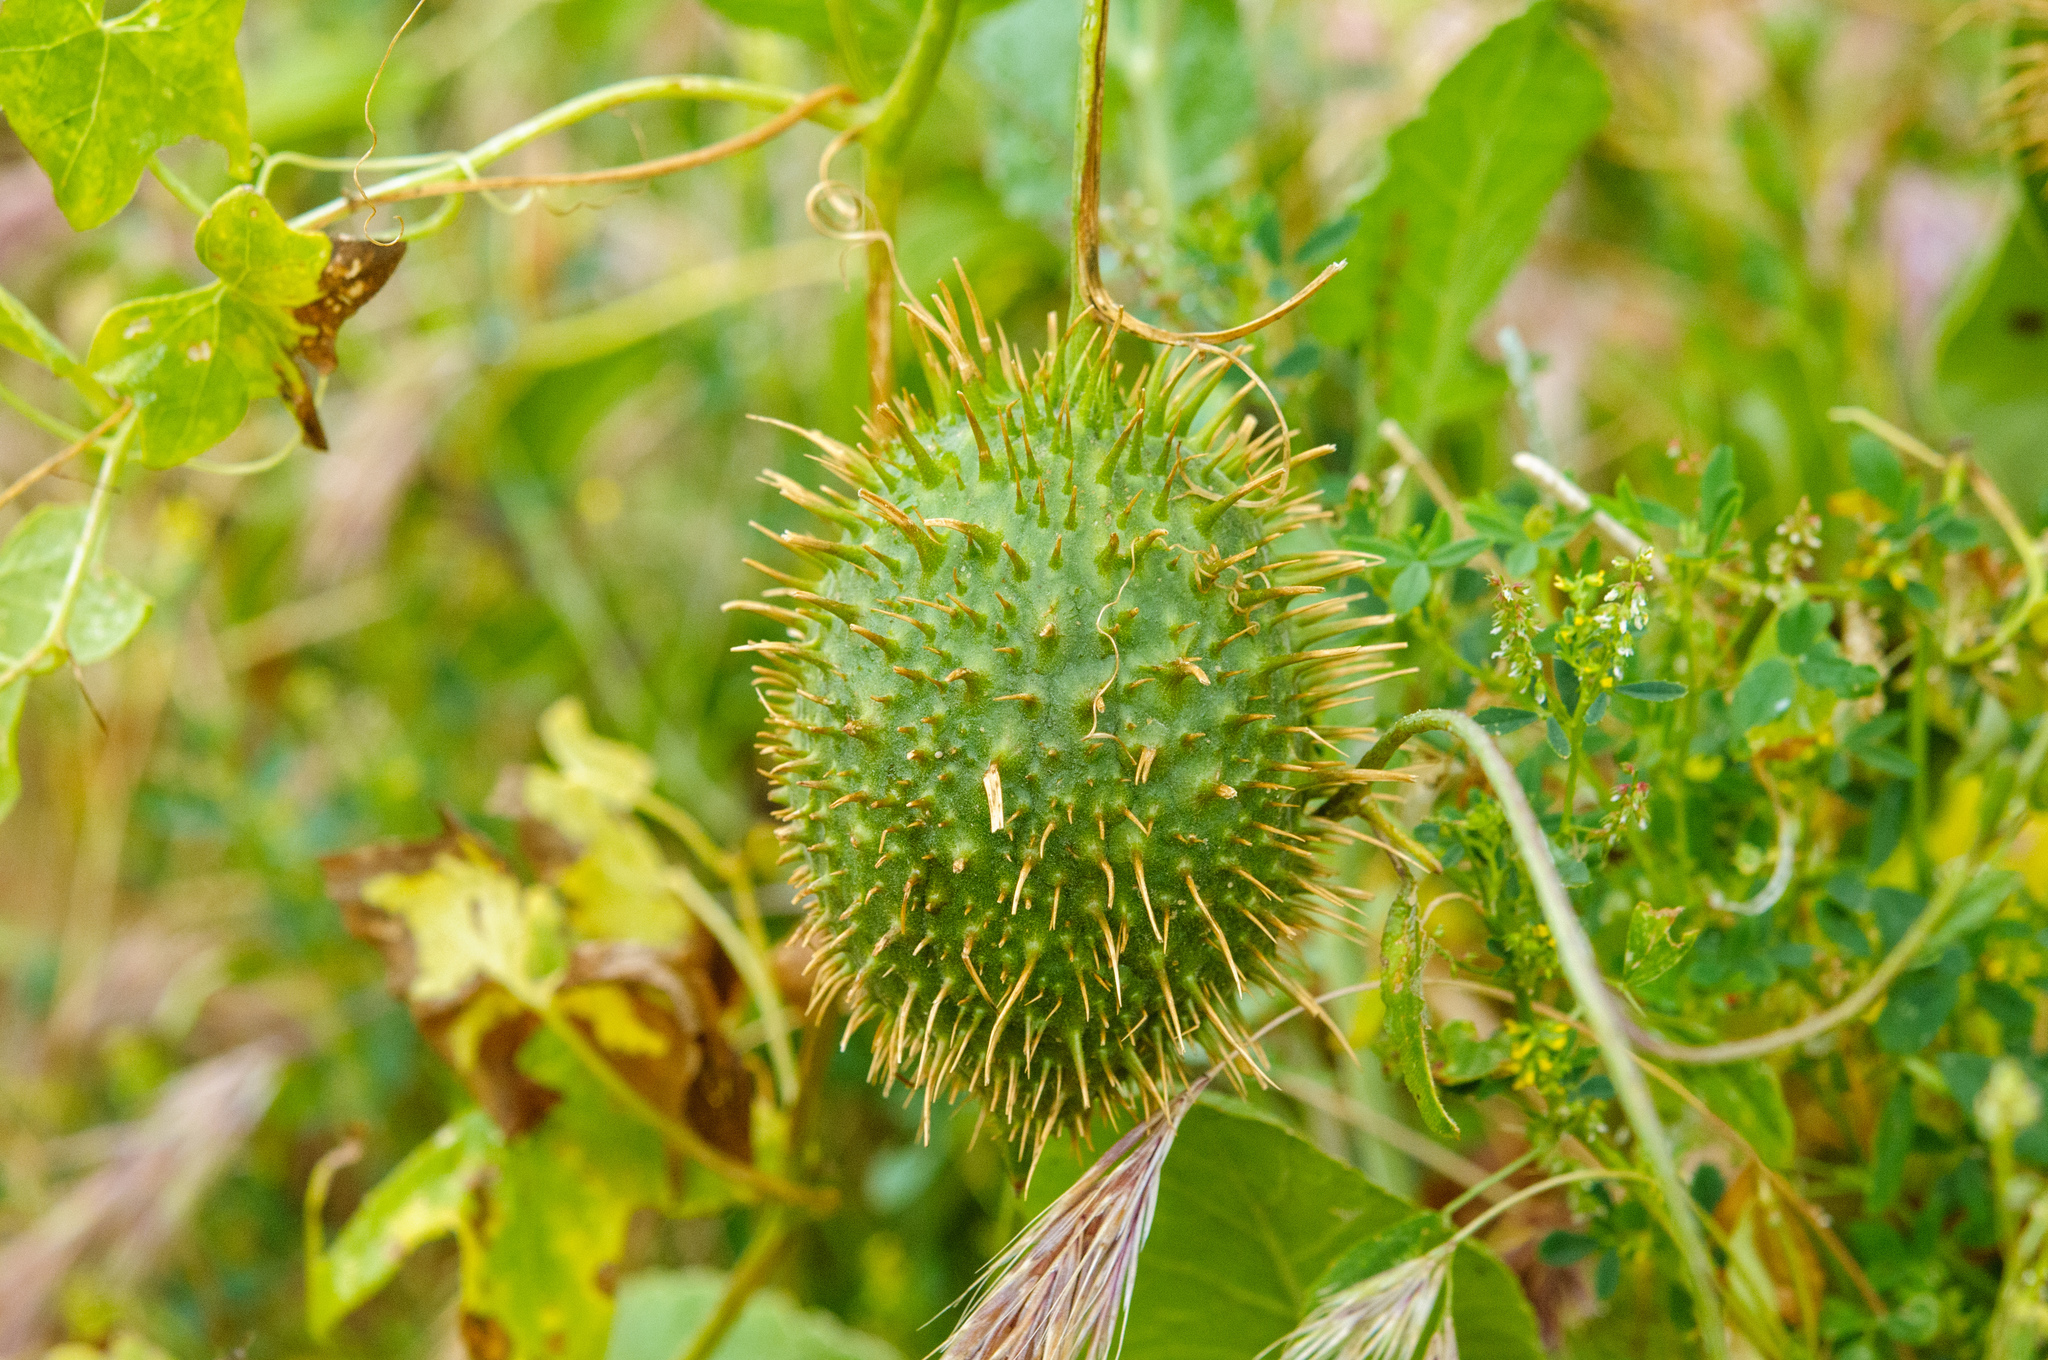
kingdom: Plantae
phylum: Tracheophyta
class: Magnoliopsida
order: Cucurbitales
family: Cucurbitaceae
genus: Marah
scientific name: Marah macrocarpa
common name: Cucamonga manroot
